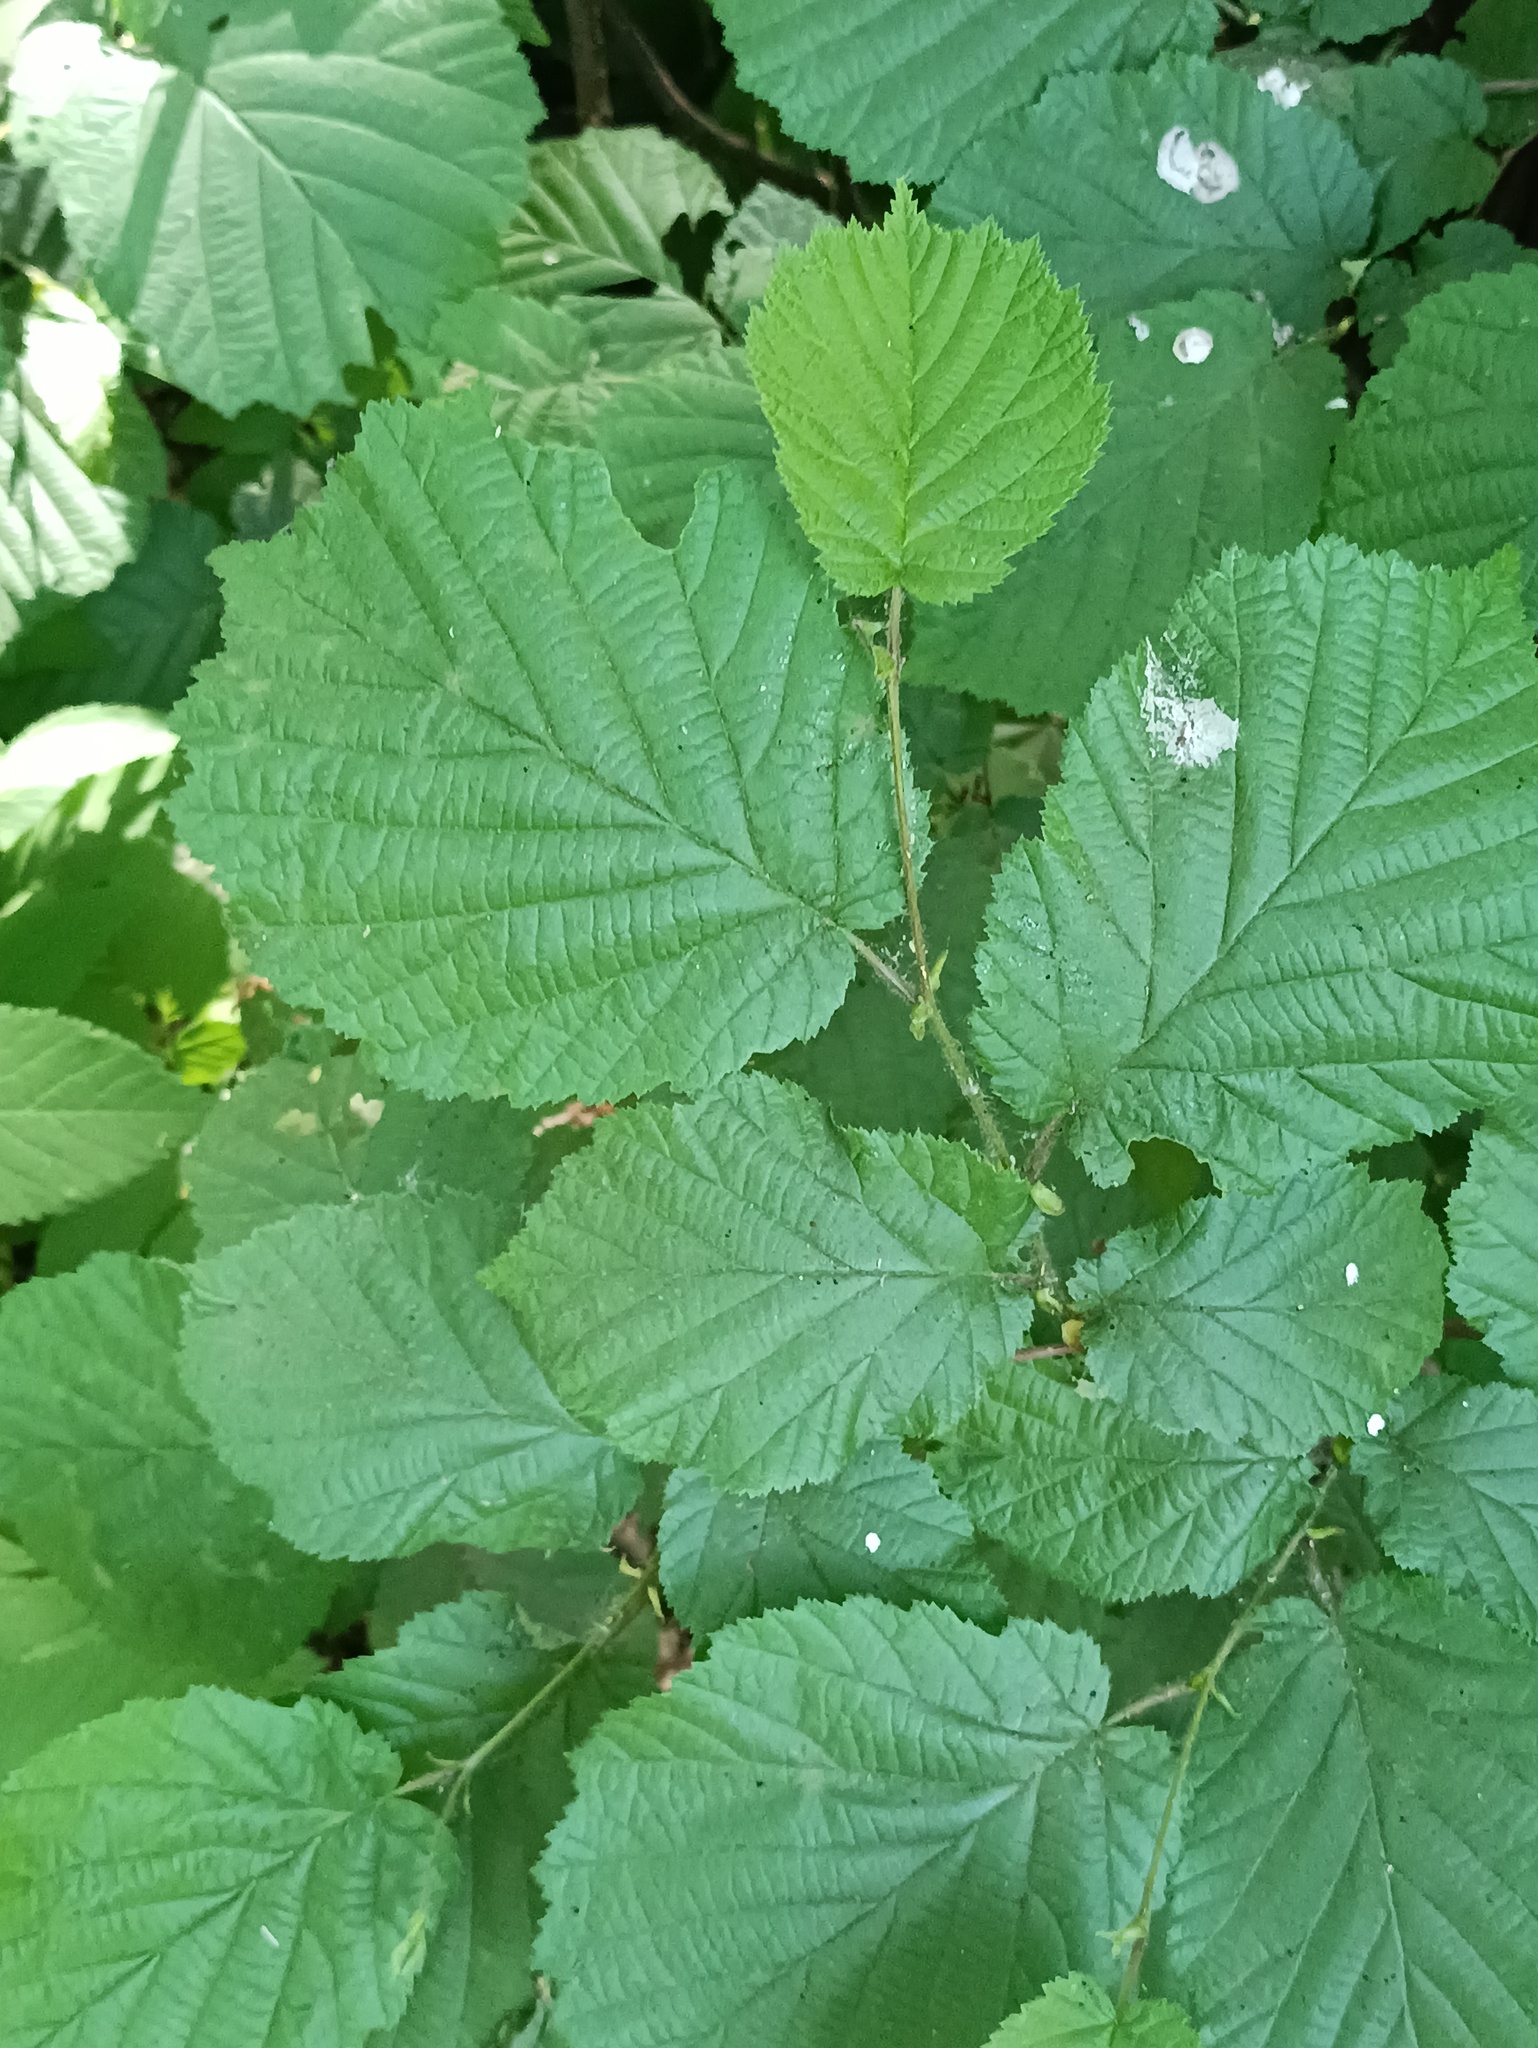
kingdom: Plantae
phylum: Tracheophyta
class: Magnoliopsida
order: Fagales
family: Betulaceae
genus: Corylus
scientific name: Corylus avellana
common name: European hazel
